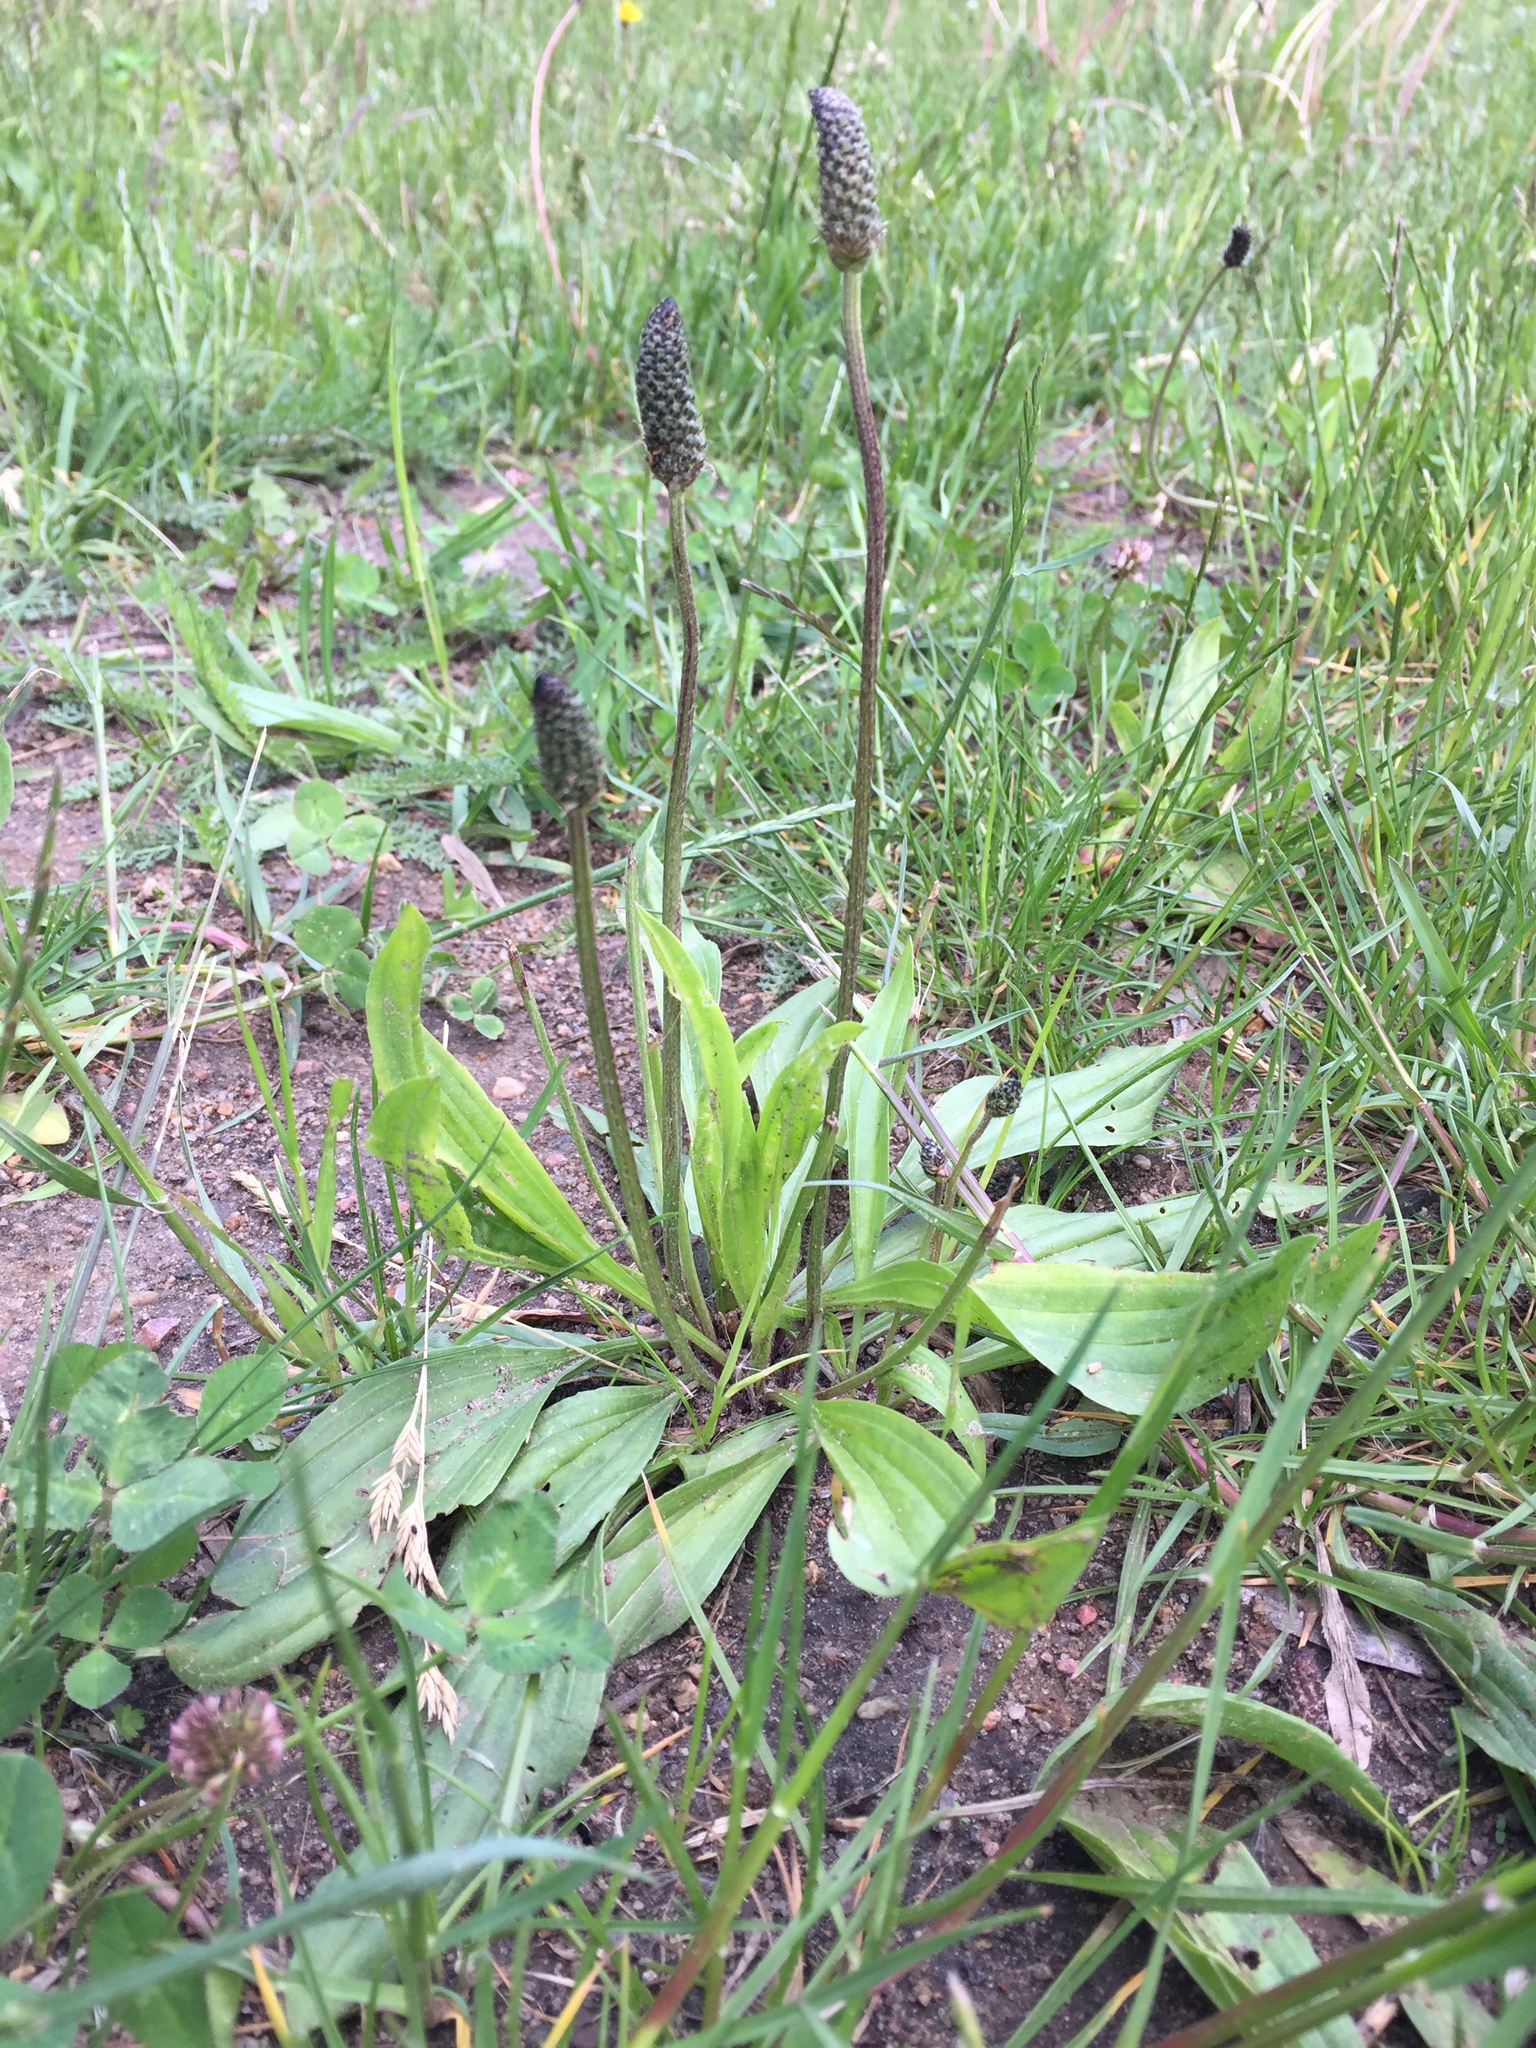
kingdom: Plantae
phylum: Tracheophyta
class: Magnoliopsida
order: Lamiales
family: Plantaginaceae
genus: Plantago
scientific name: Plantago lanceolata
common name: Ribwort plantain
